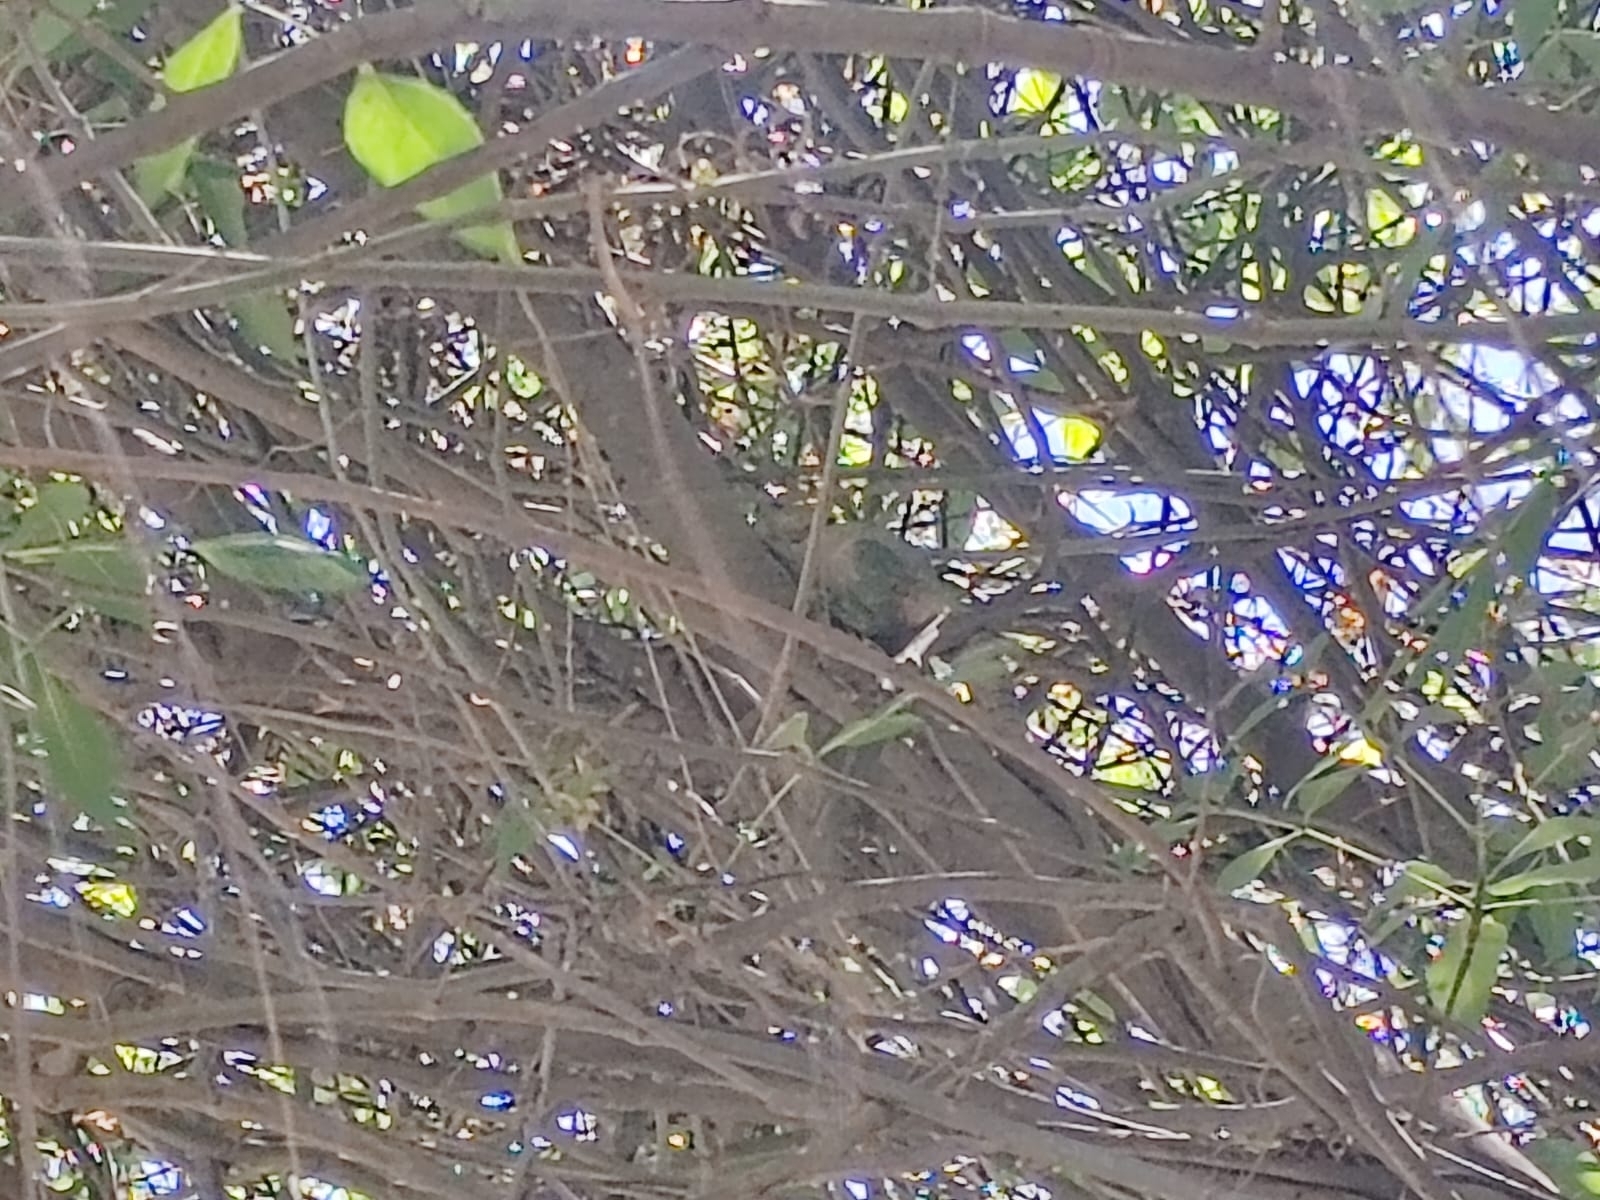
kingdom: Animalia
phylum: Chordata
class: Squamata
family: Iguanidae
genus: Ctenosaura
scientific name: Ctenosaura pectinata
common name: Guerreran spiny-tailed iguana
